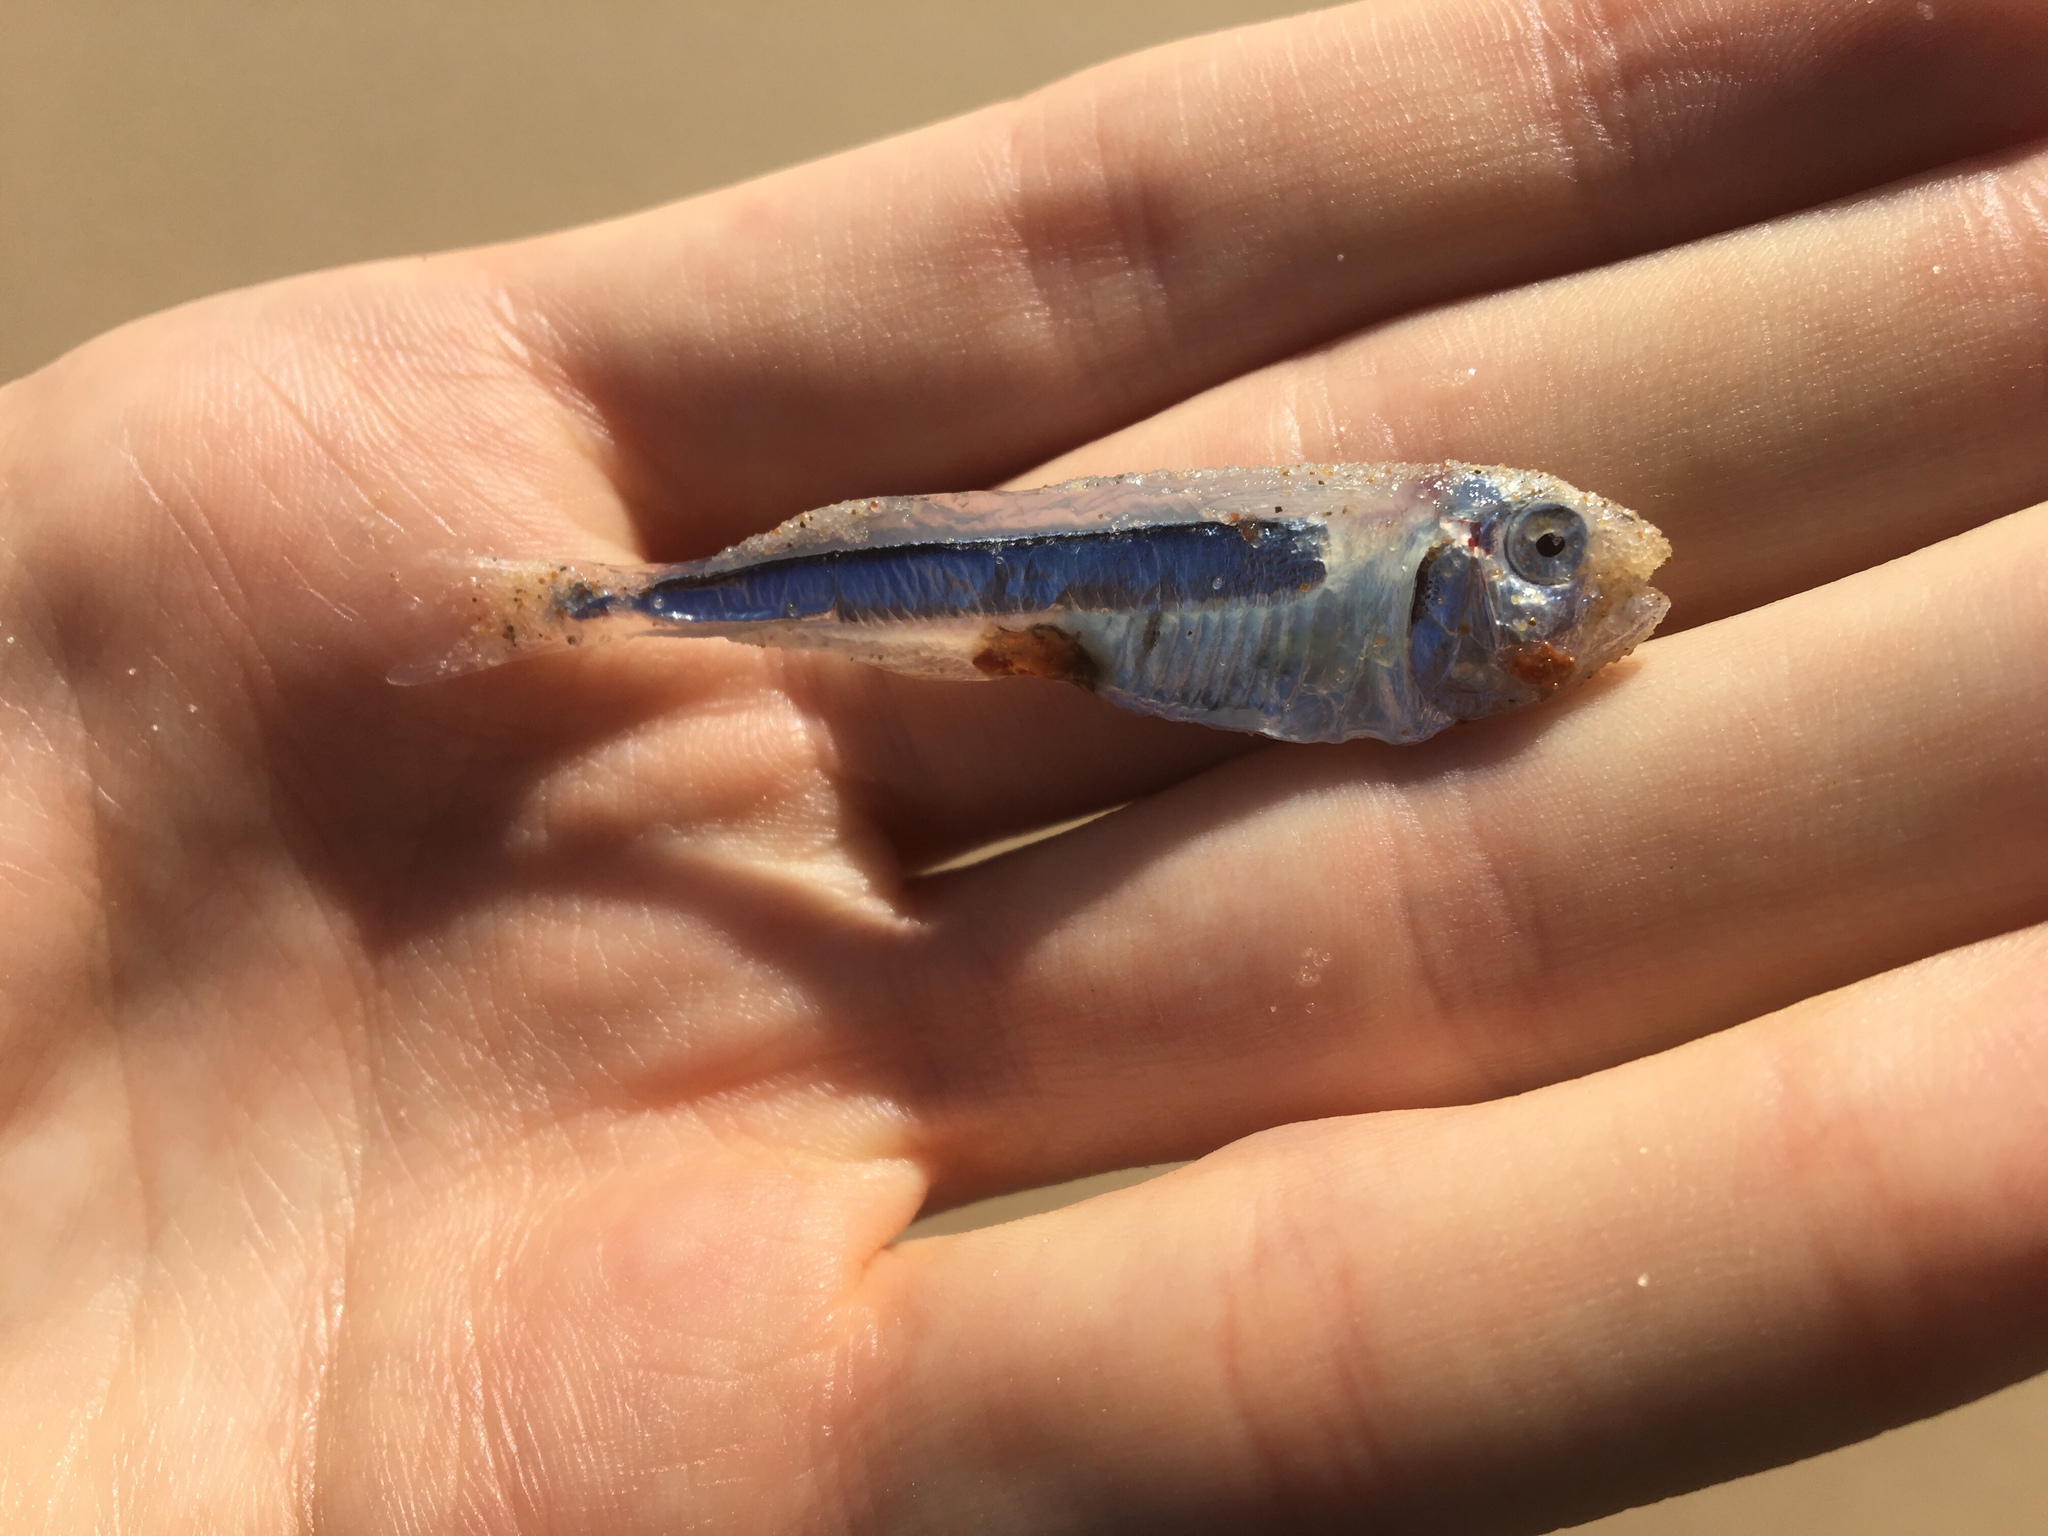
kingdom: Animalia
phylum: Chordata
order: Atheriniformes
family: Isonidae
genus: Iso
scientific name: Iso rhothophilus
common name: Flower of the wave
